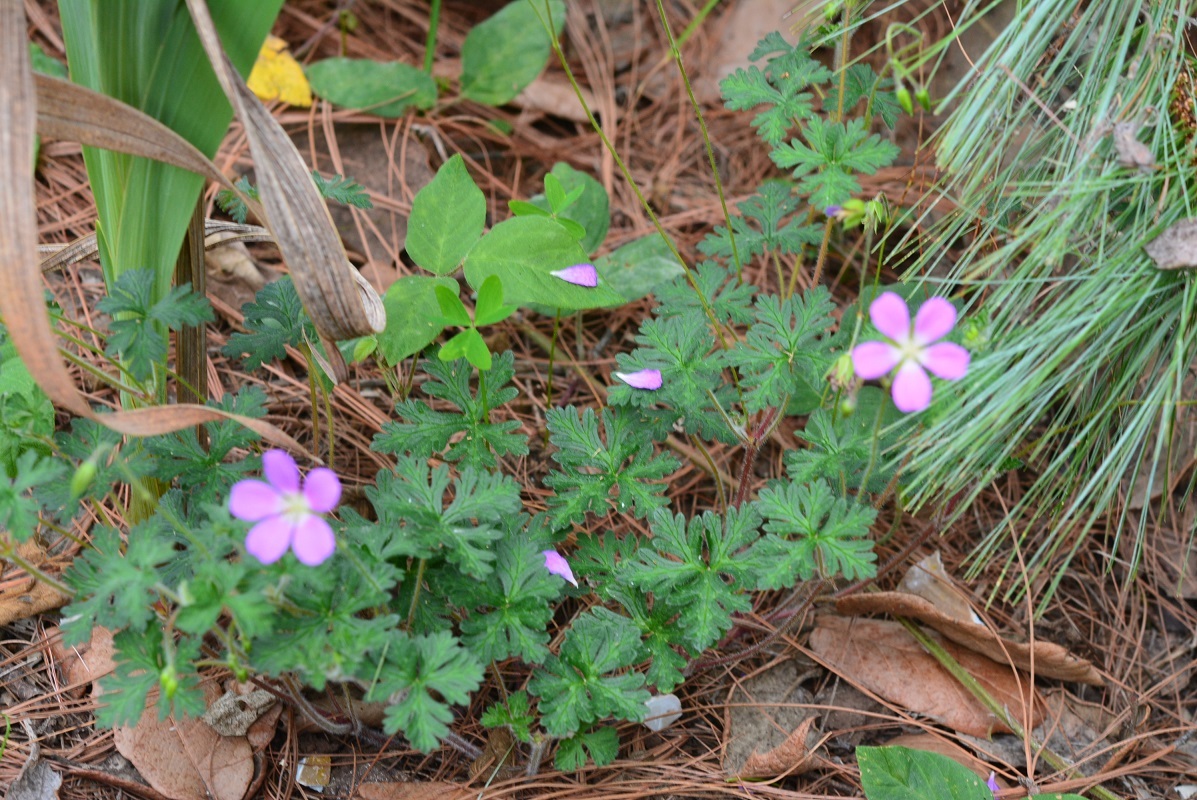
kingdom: Plantae
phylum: Tracheophyta
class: Magnoliopsida
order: Geraniales
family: Geraniaceae
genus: Geranium
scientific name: Geranium goldmanii
